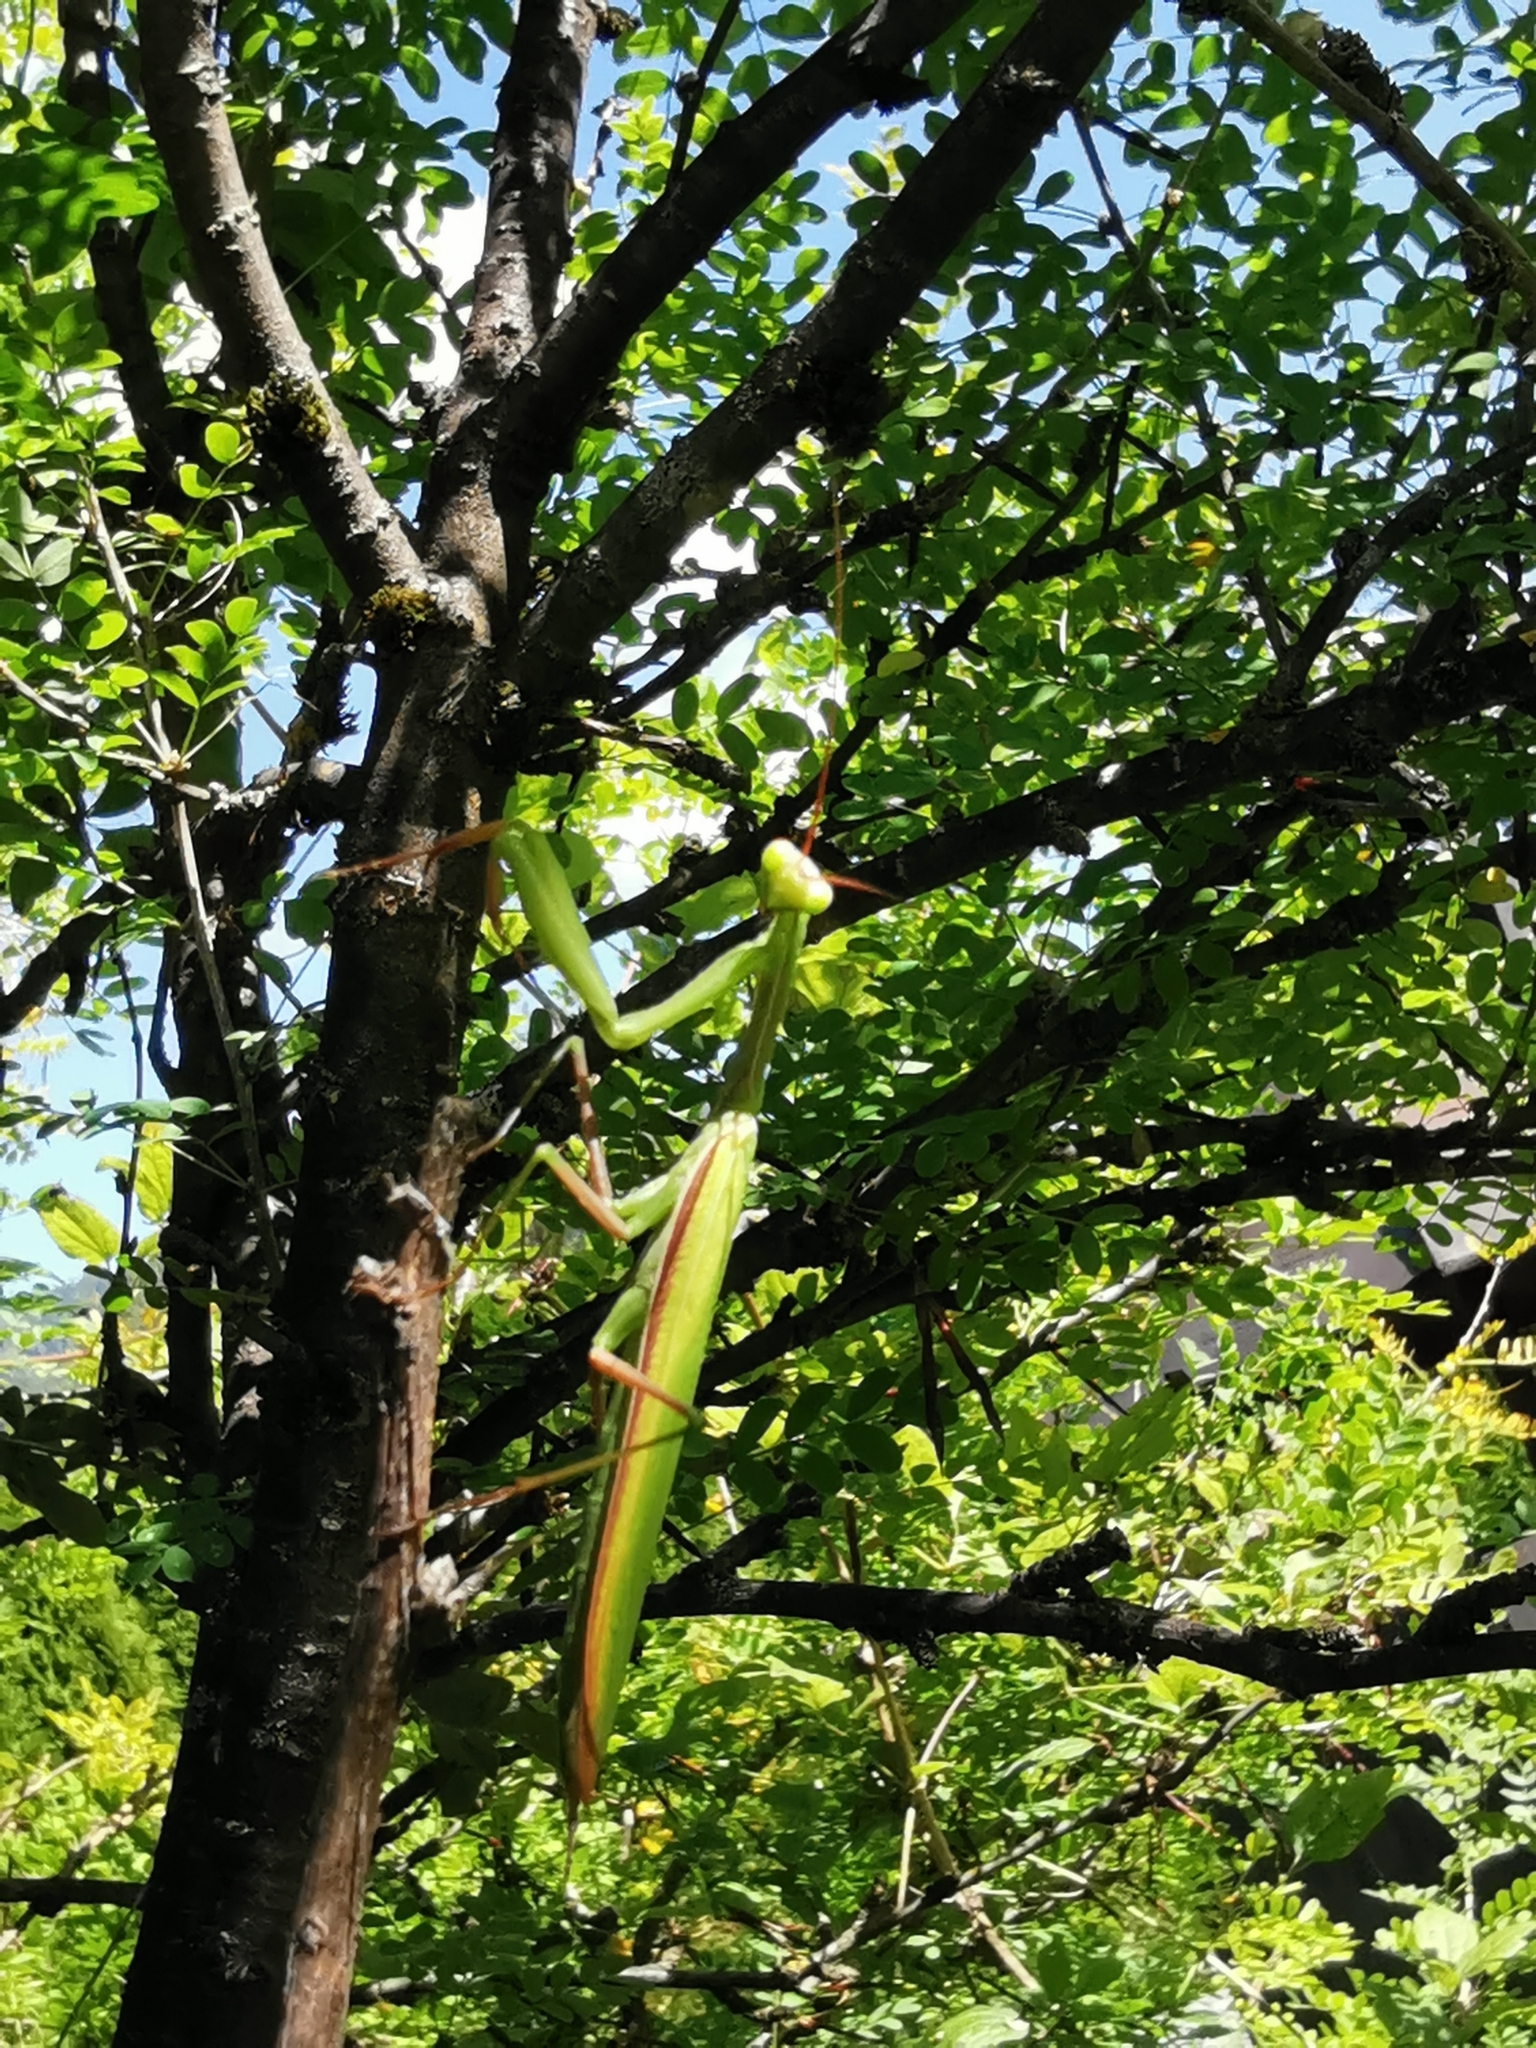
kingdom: Animalia
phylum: Arthropoda
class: Insecta
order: Mantodea
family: Mantidae
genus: Mantis
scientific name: Mantis religiosa
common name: Praying mantis
